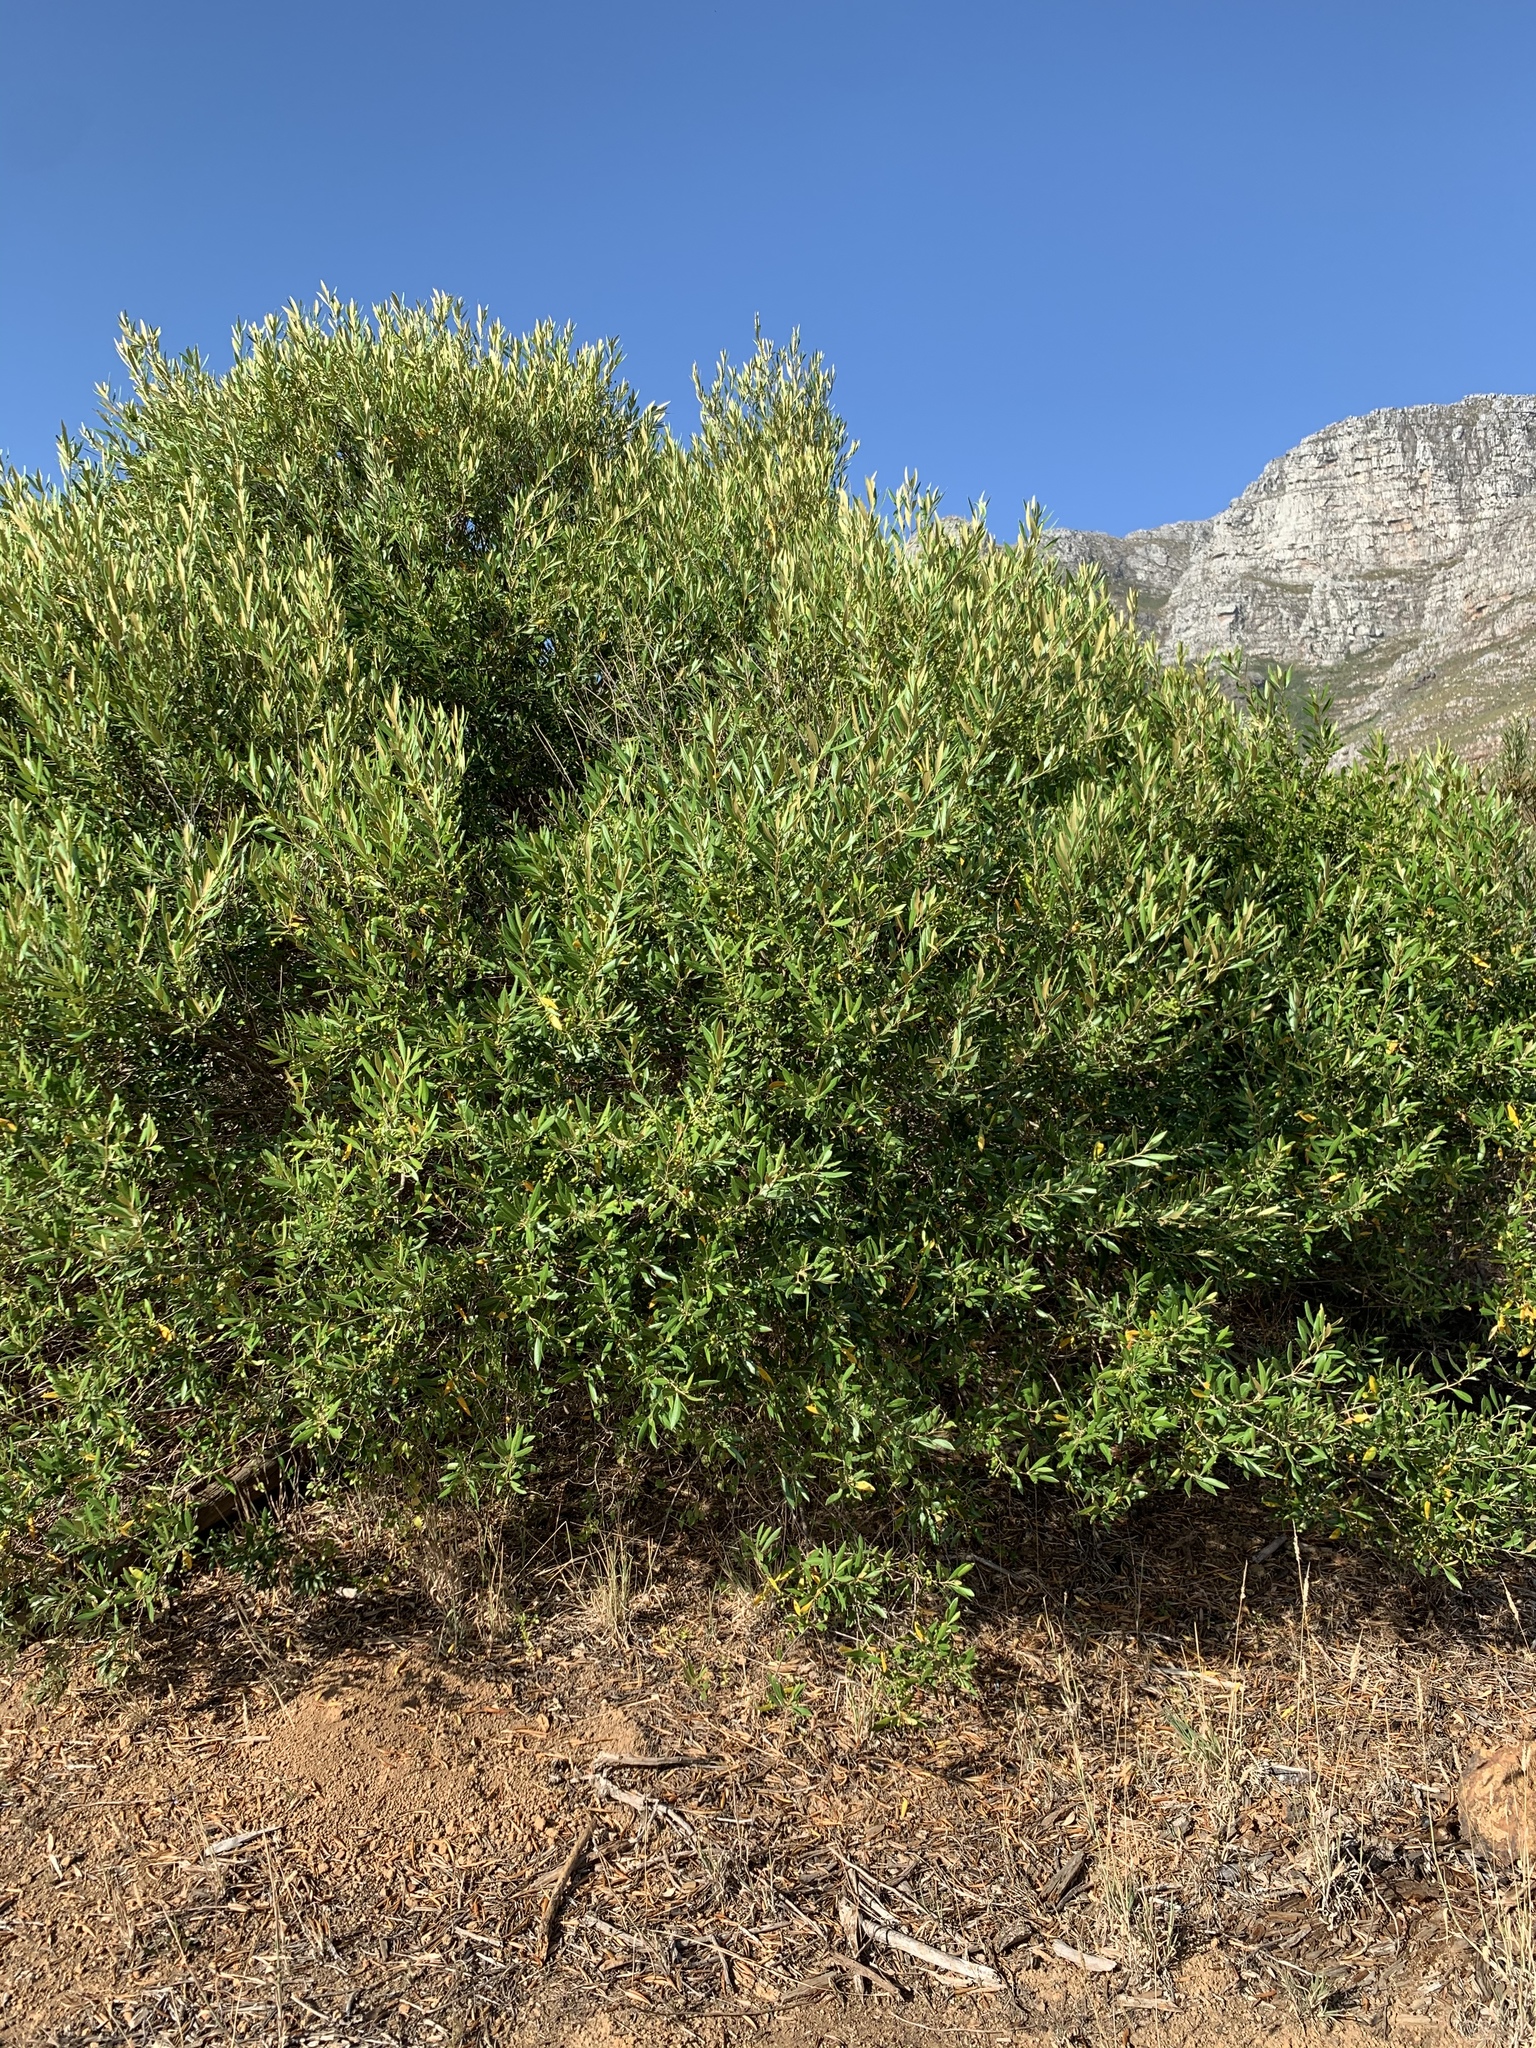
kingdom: Plantae
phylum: Tracheophyta
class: Magnoliopsida
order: Lamiales
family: Oleaceae
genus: Olea
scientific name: Olea europaea
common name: Olive
